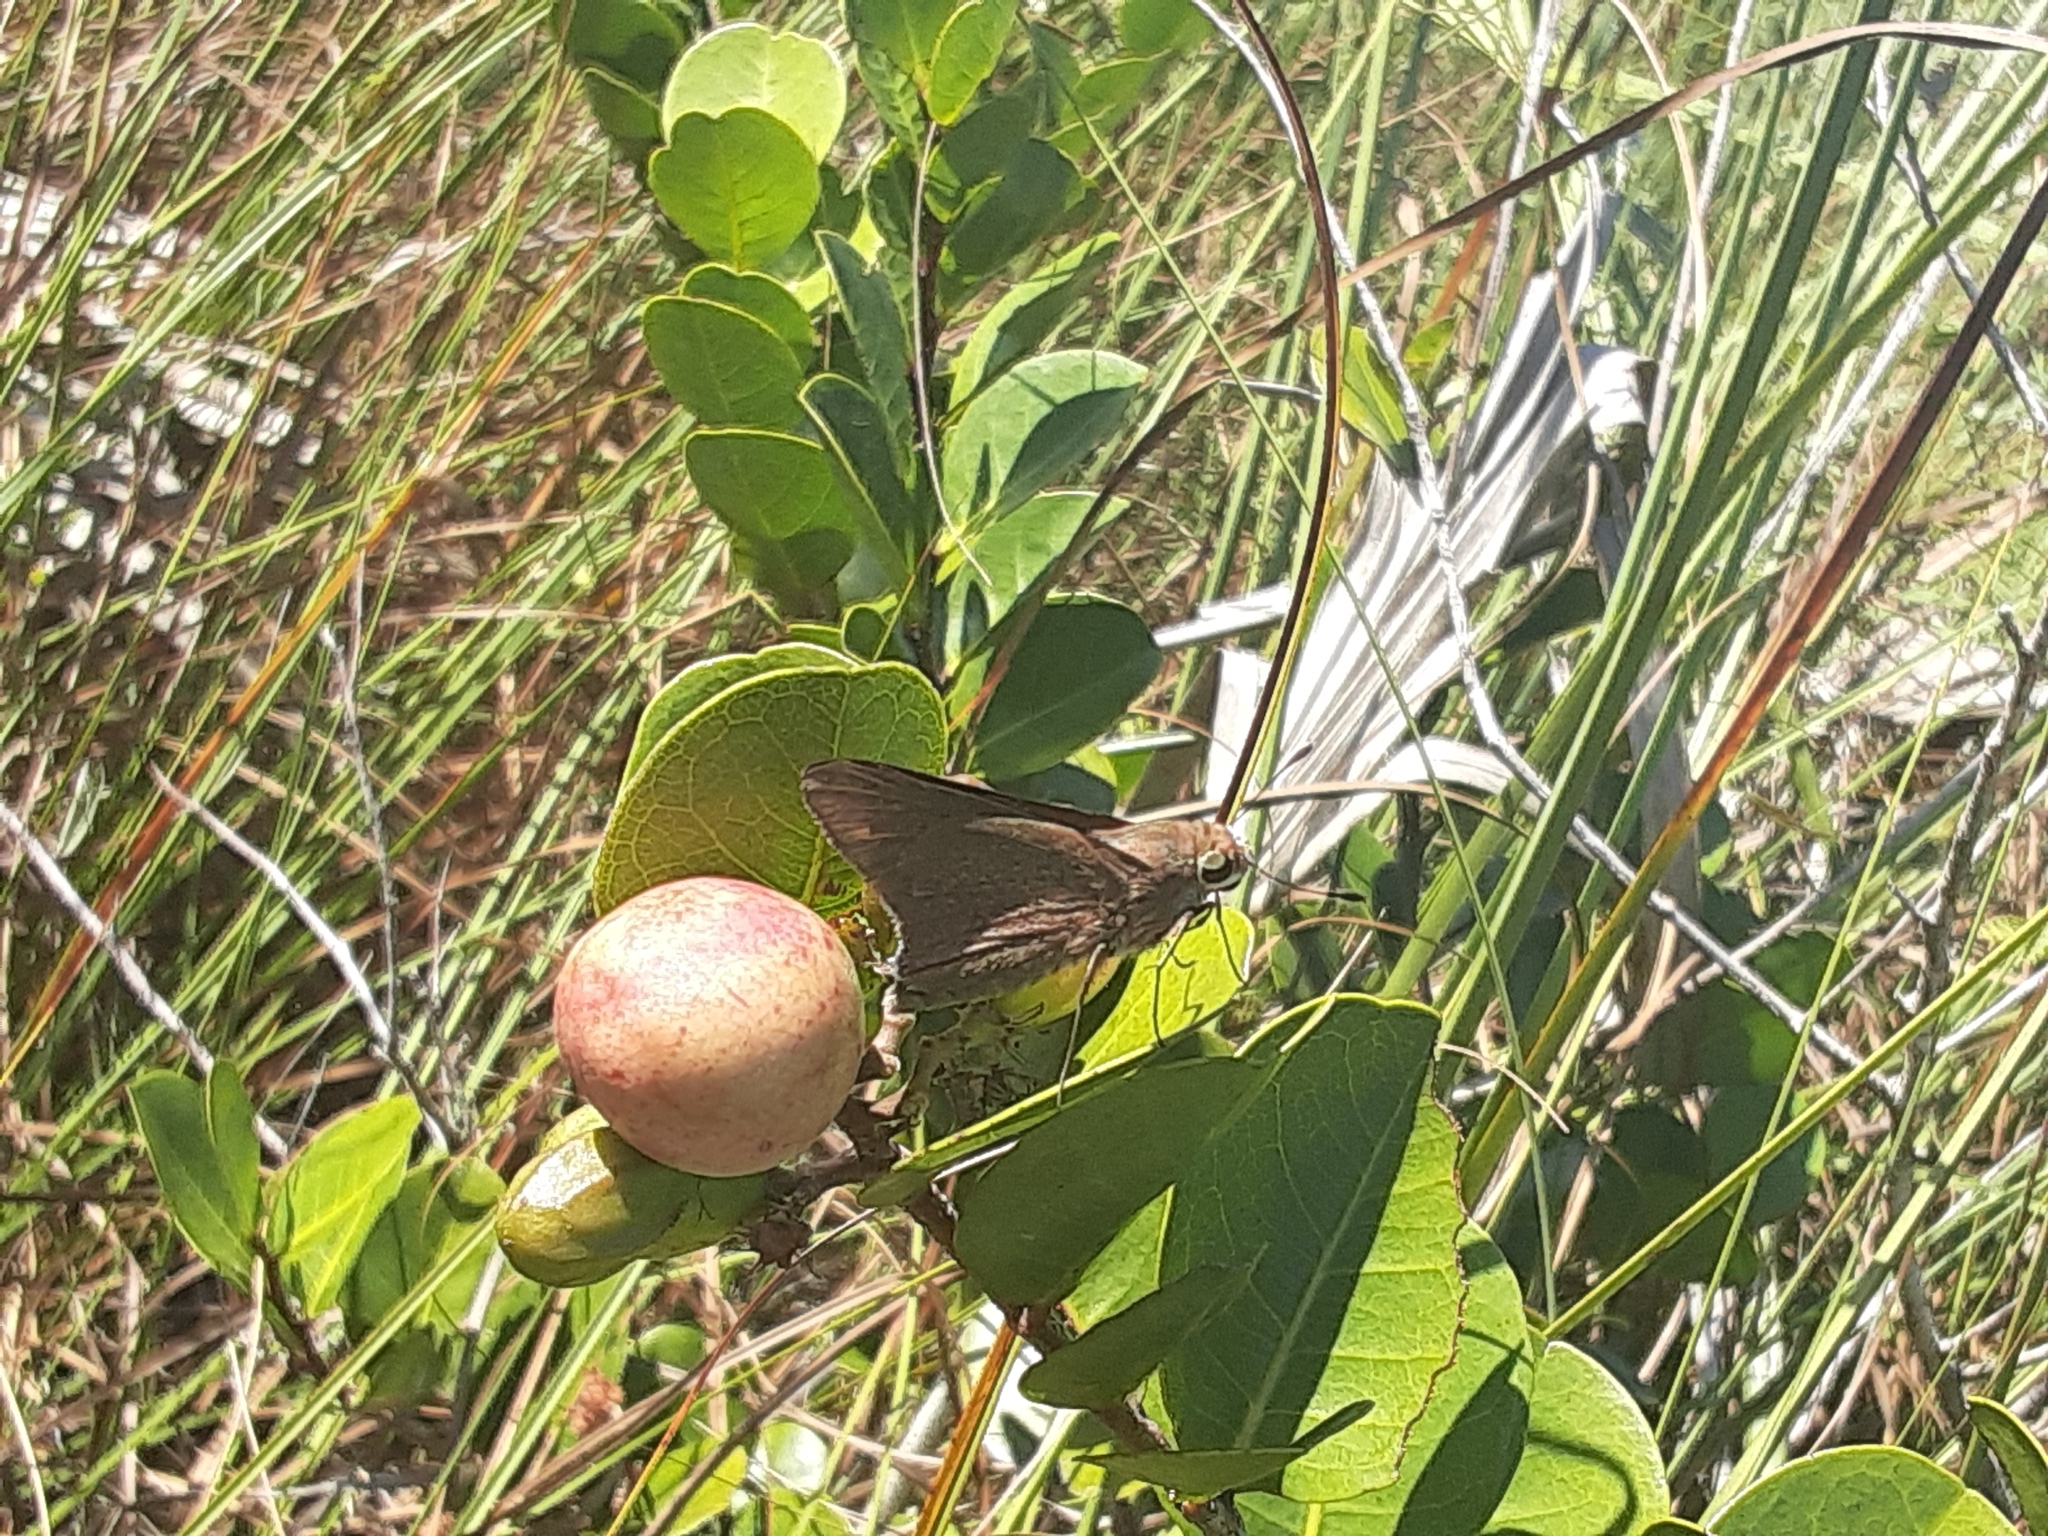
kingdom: Animalia
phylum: Arthropoda
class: Insecta
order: Lepidoptera
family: Hesperiidae
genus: Asbolis
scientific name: Asbolis capucinus
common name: Monk skipper
